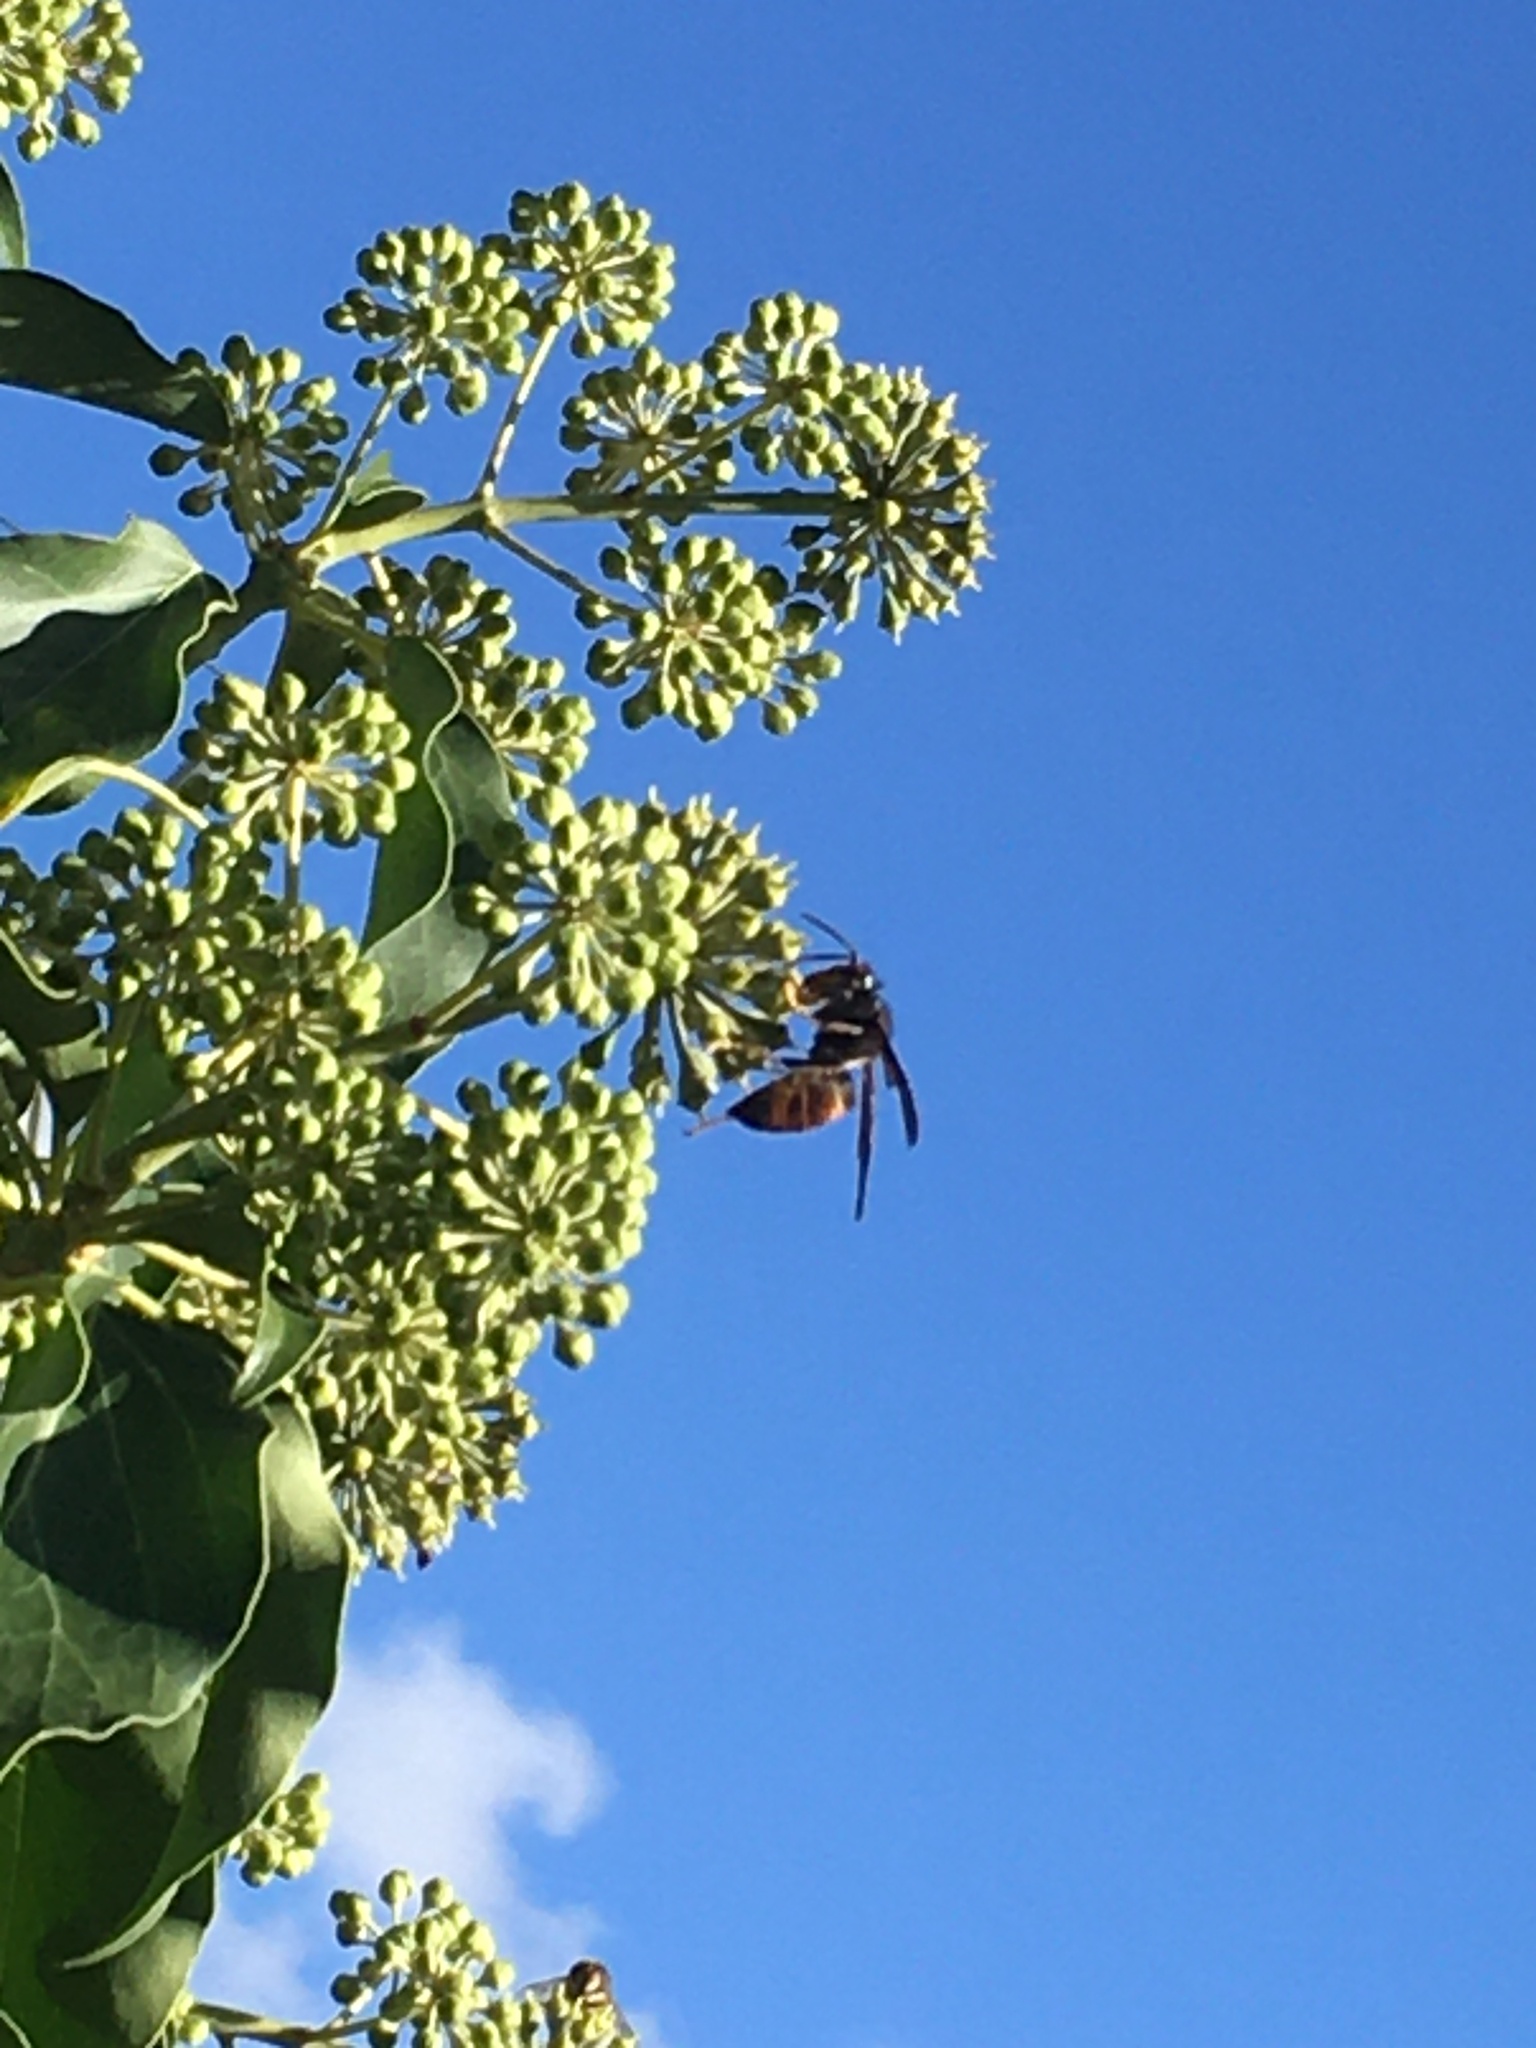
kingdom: Animalia
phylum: Arthropoda
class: Insecta
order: Hymenoptera
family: Vespidae
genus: Vespa
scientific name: Vespa velutina
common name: Asian hornet
